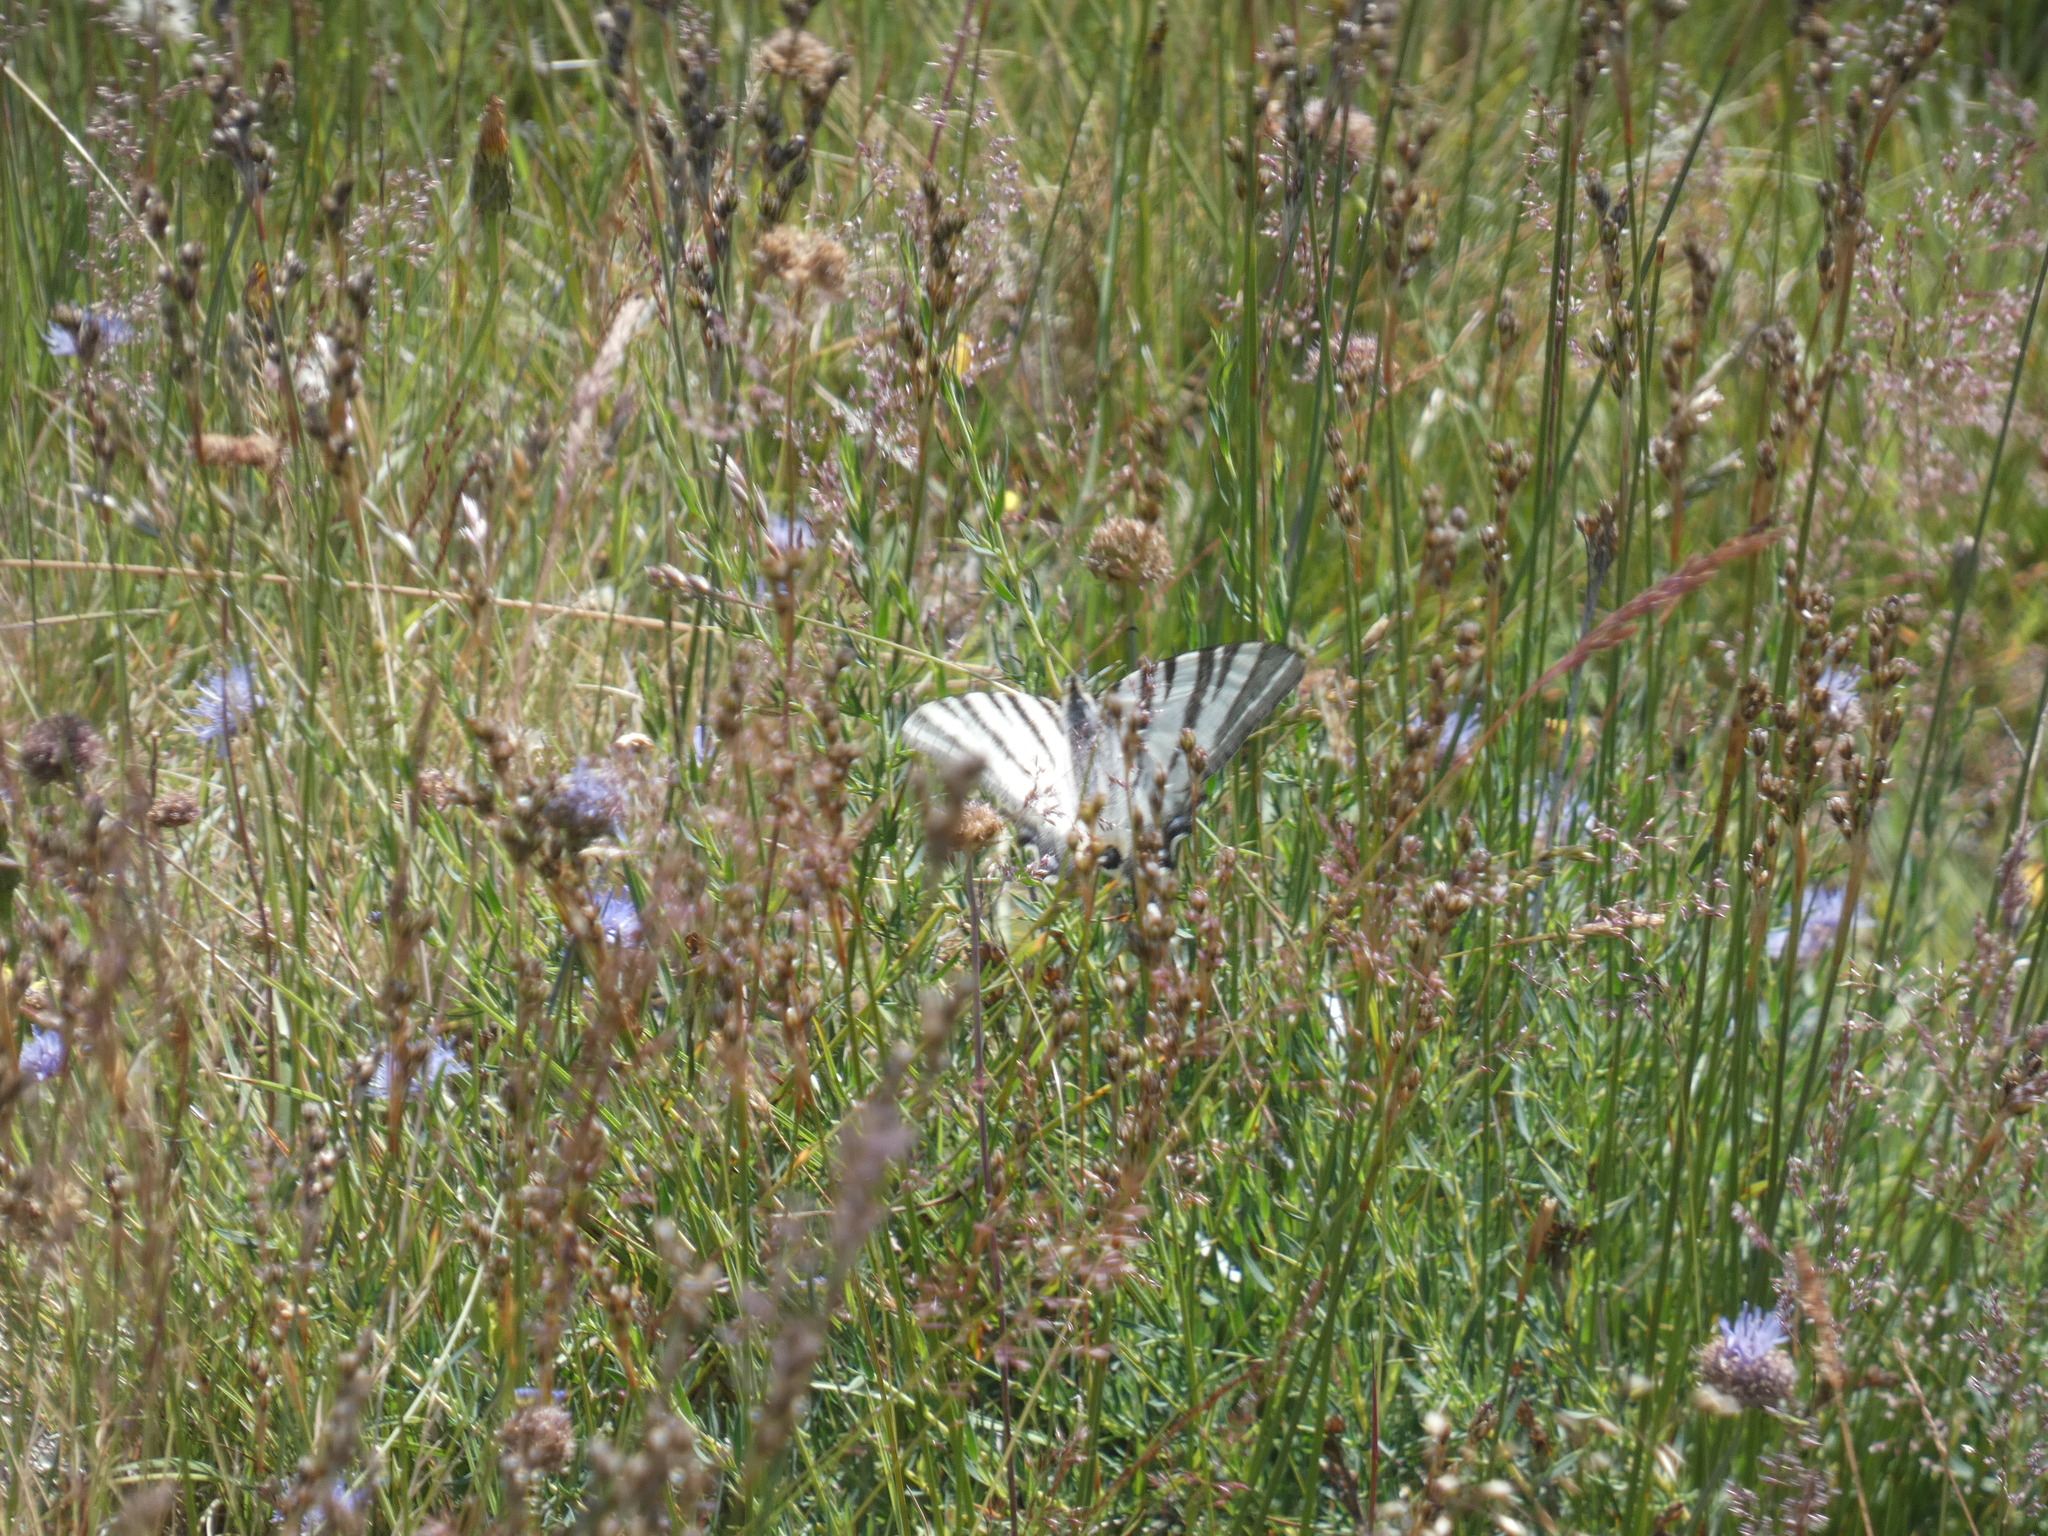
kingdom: Animalia
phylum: Arthropoda
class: Insecta
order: Lepidoptera
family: Papilionidae
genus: Iphiclides
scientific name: Iphiclides podalirius
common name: Scarce swallowtail
